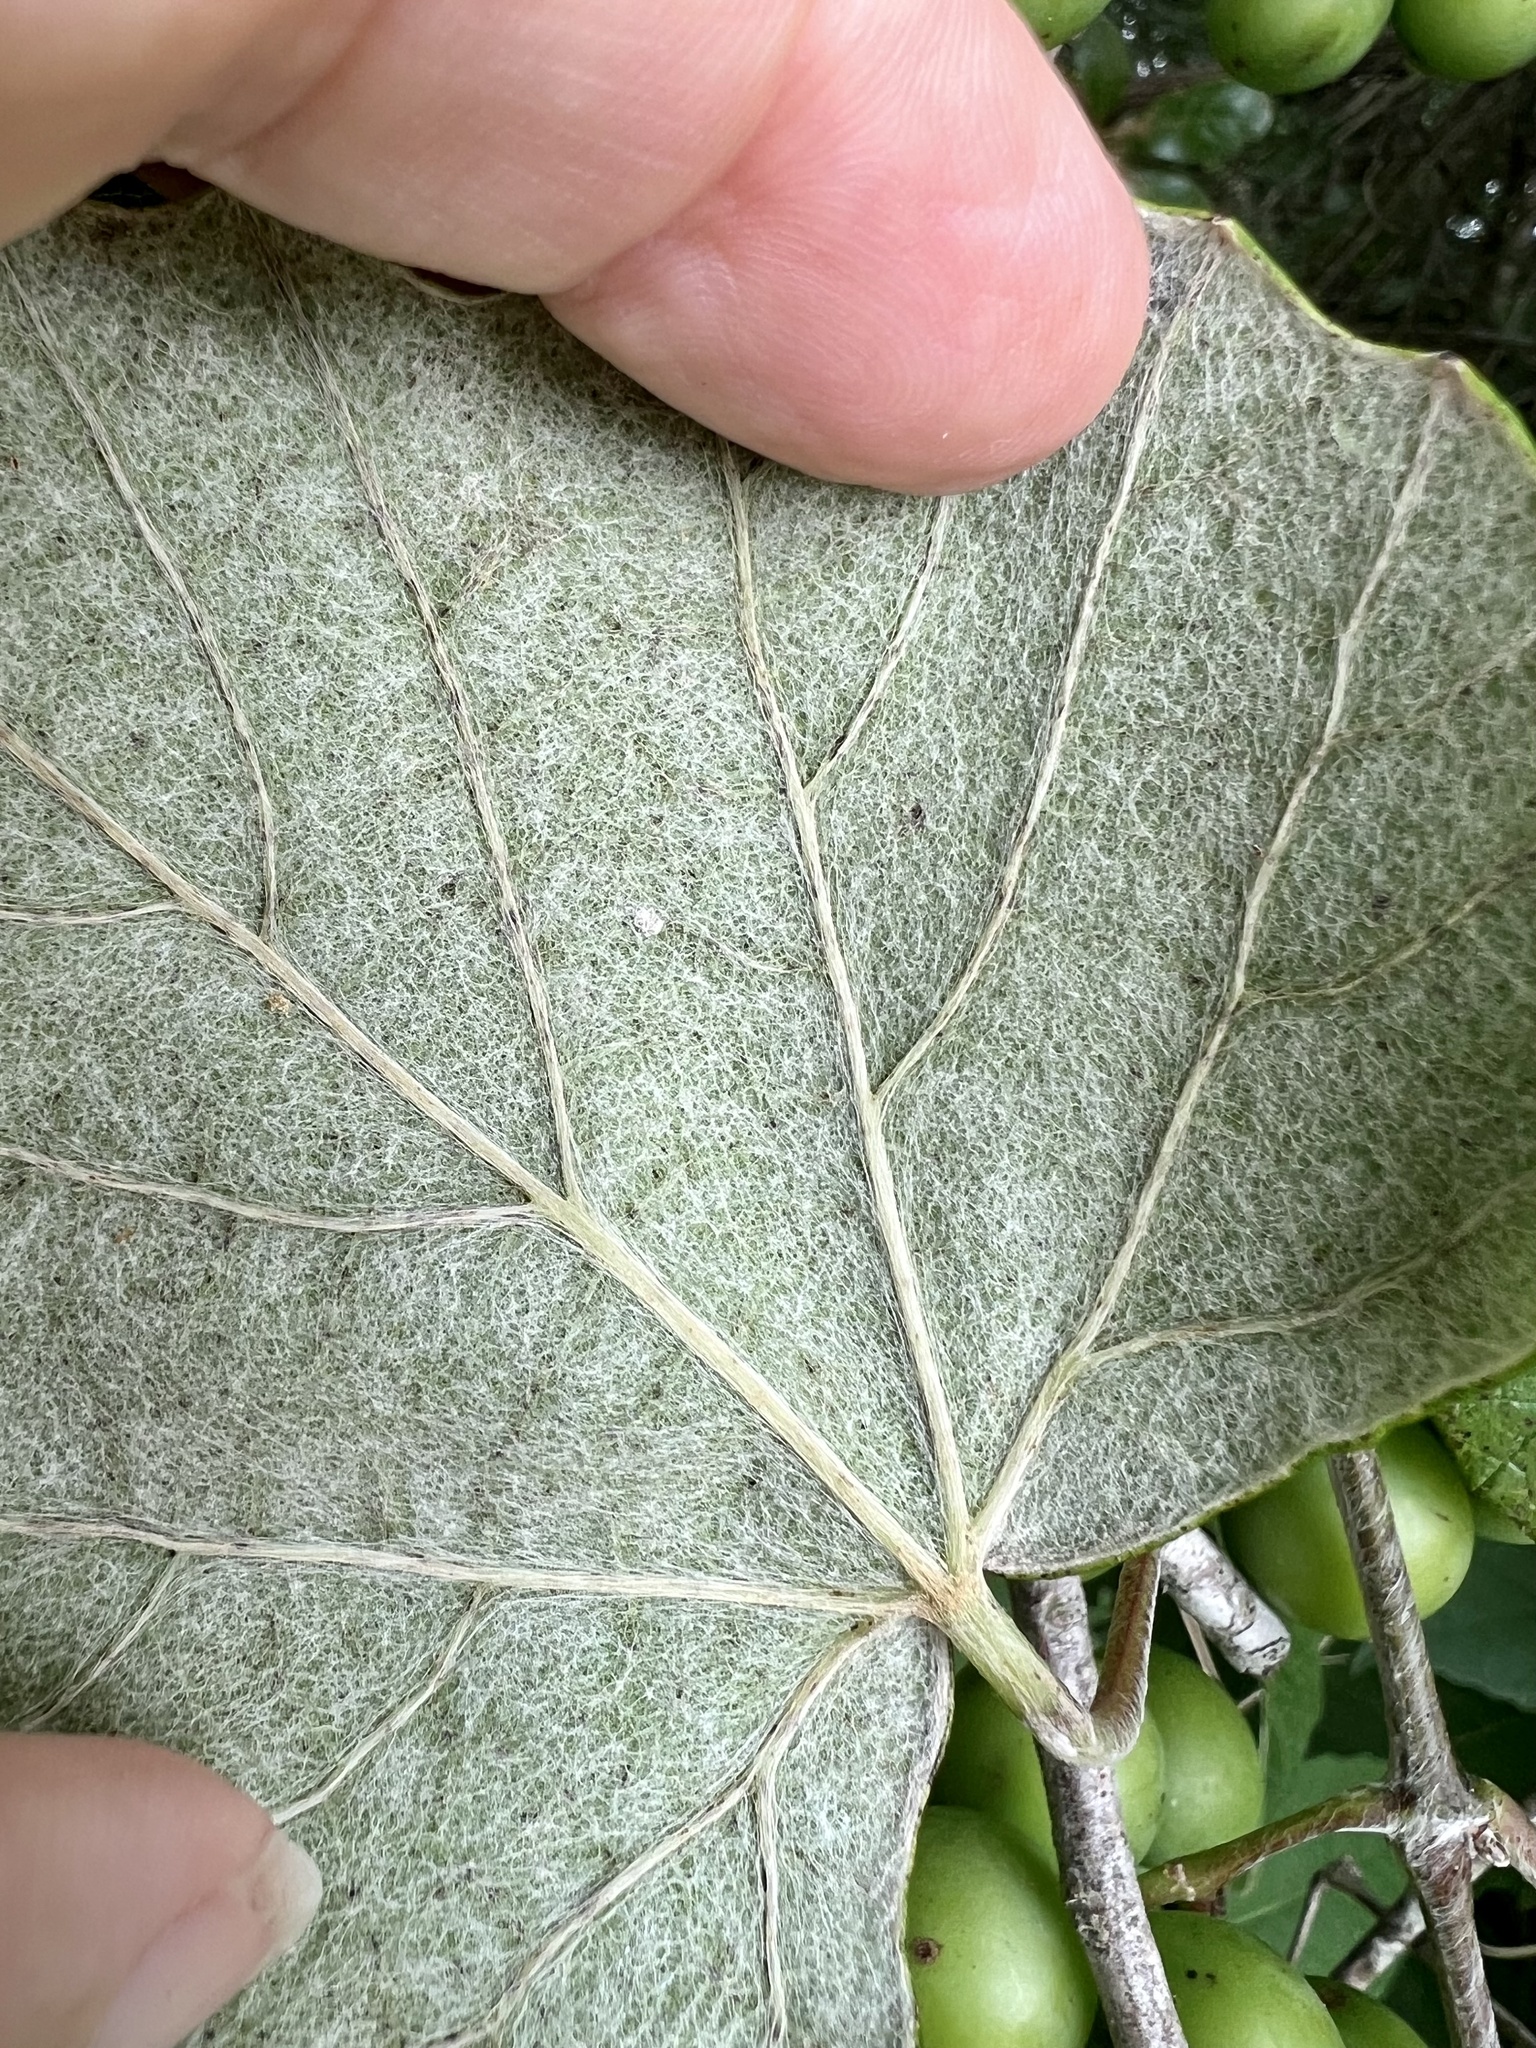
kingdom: Plantae
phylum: Tracheophyta
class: Magnoliopsida
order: Vitales
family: Vitaceae
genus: Vitis
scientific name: Vitis mustangensis
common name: Mustang grape
